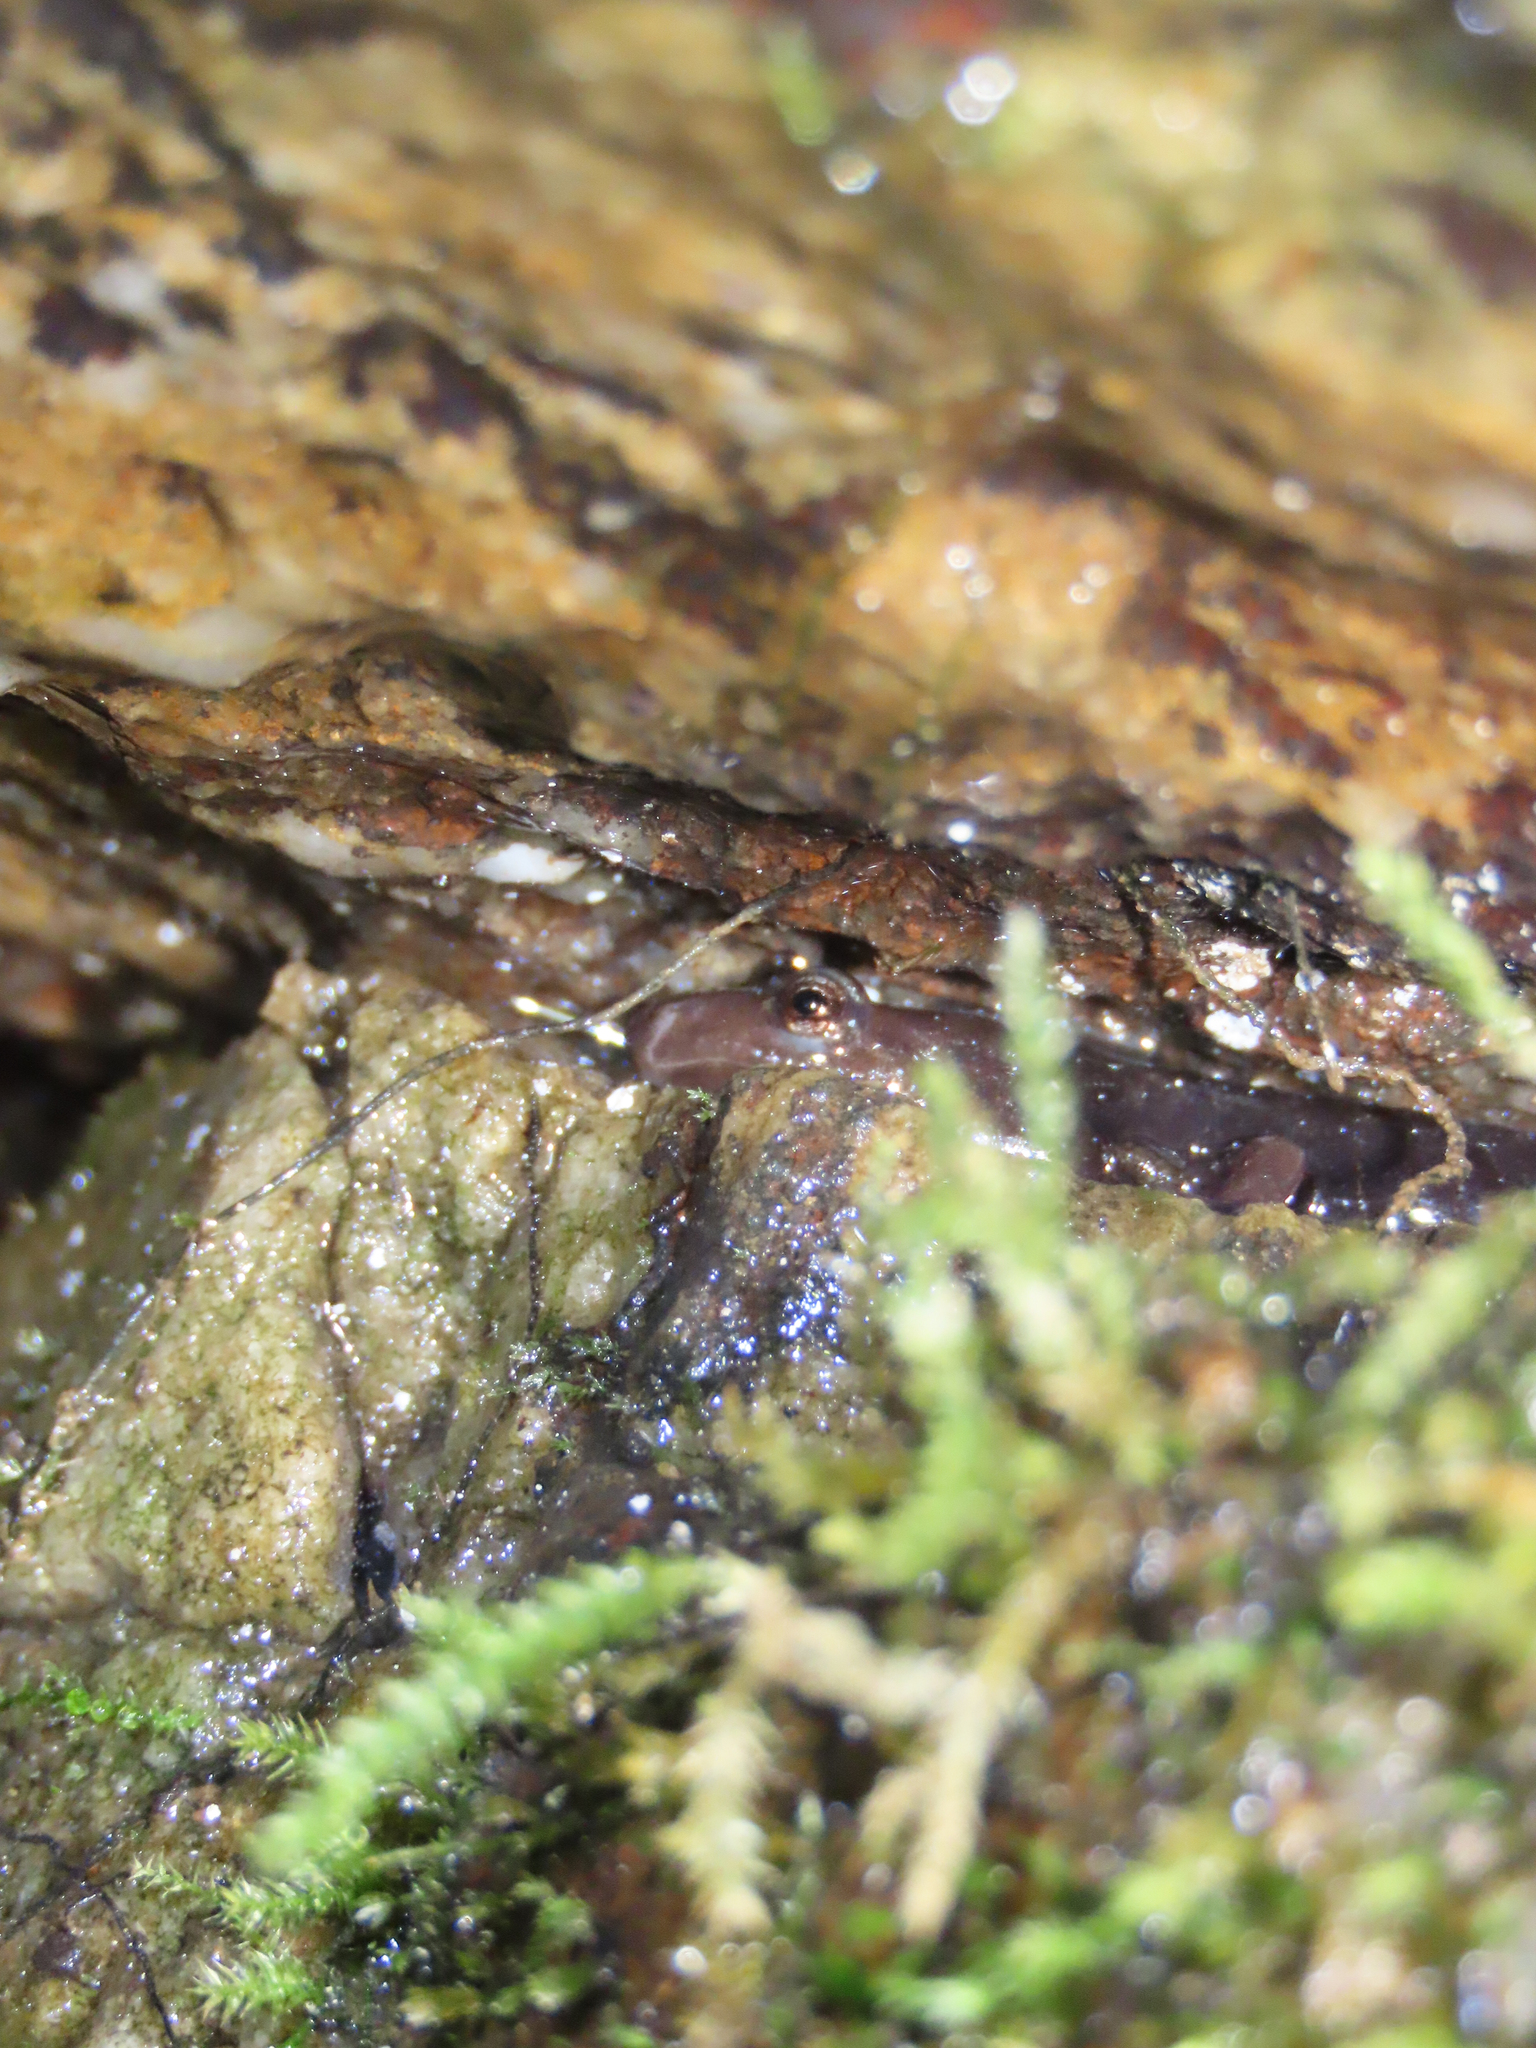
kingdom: Animalia
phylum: Chordata
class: Amphibia
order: Caudata
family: Plethodontidae
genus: Desmognathus
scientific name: Desmognathus ochrophaeus
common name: Allegheny mountain dusky salamander
